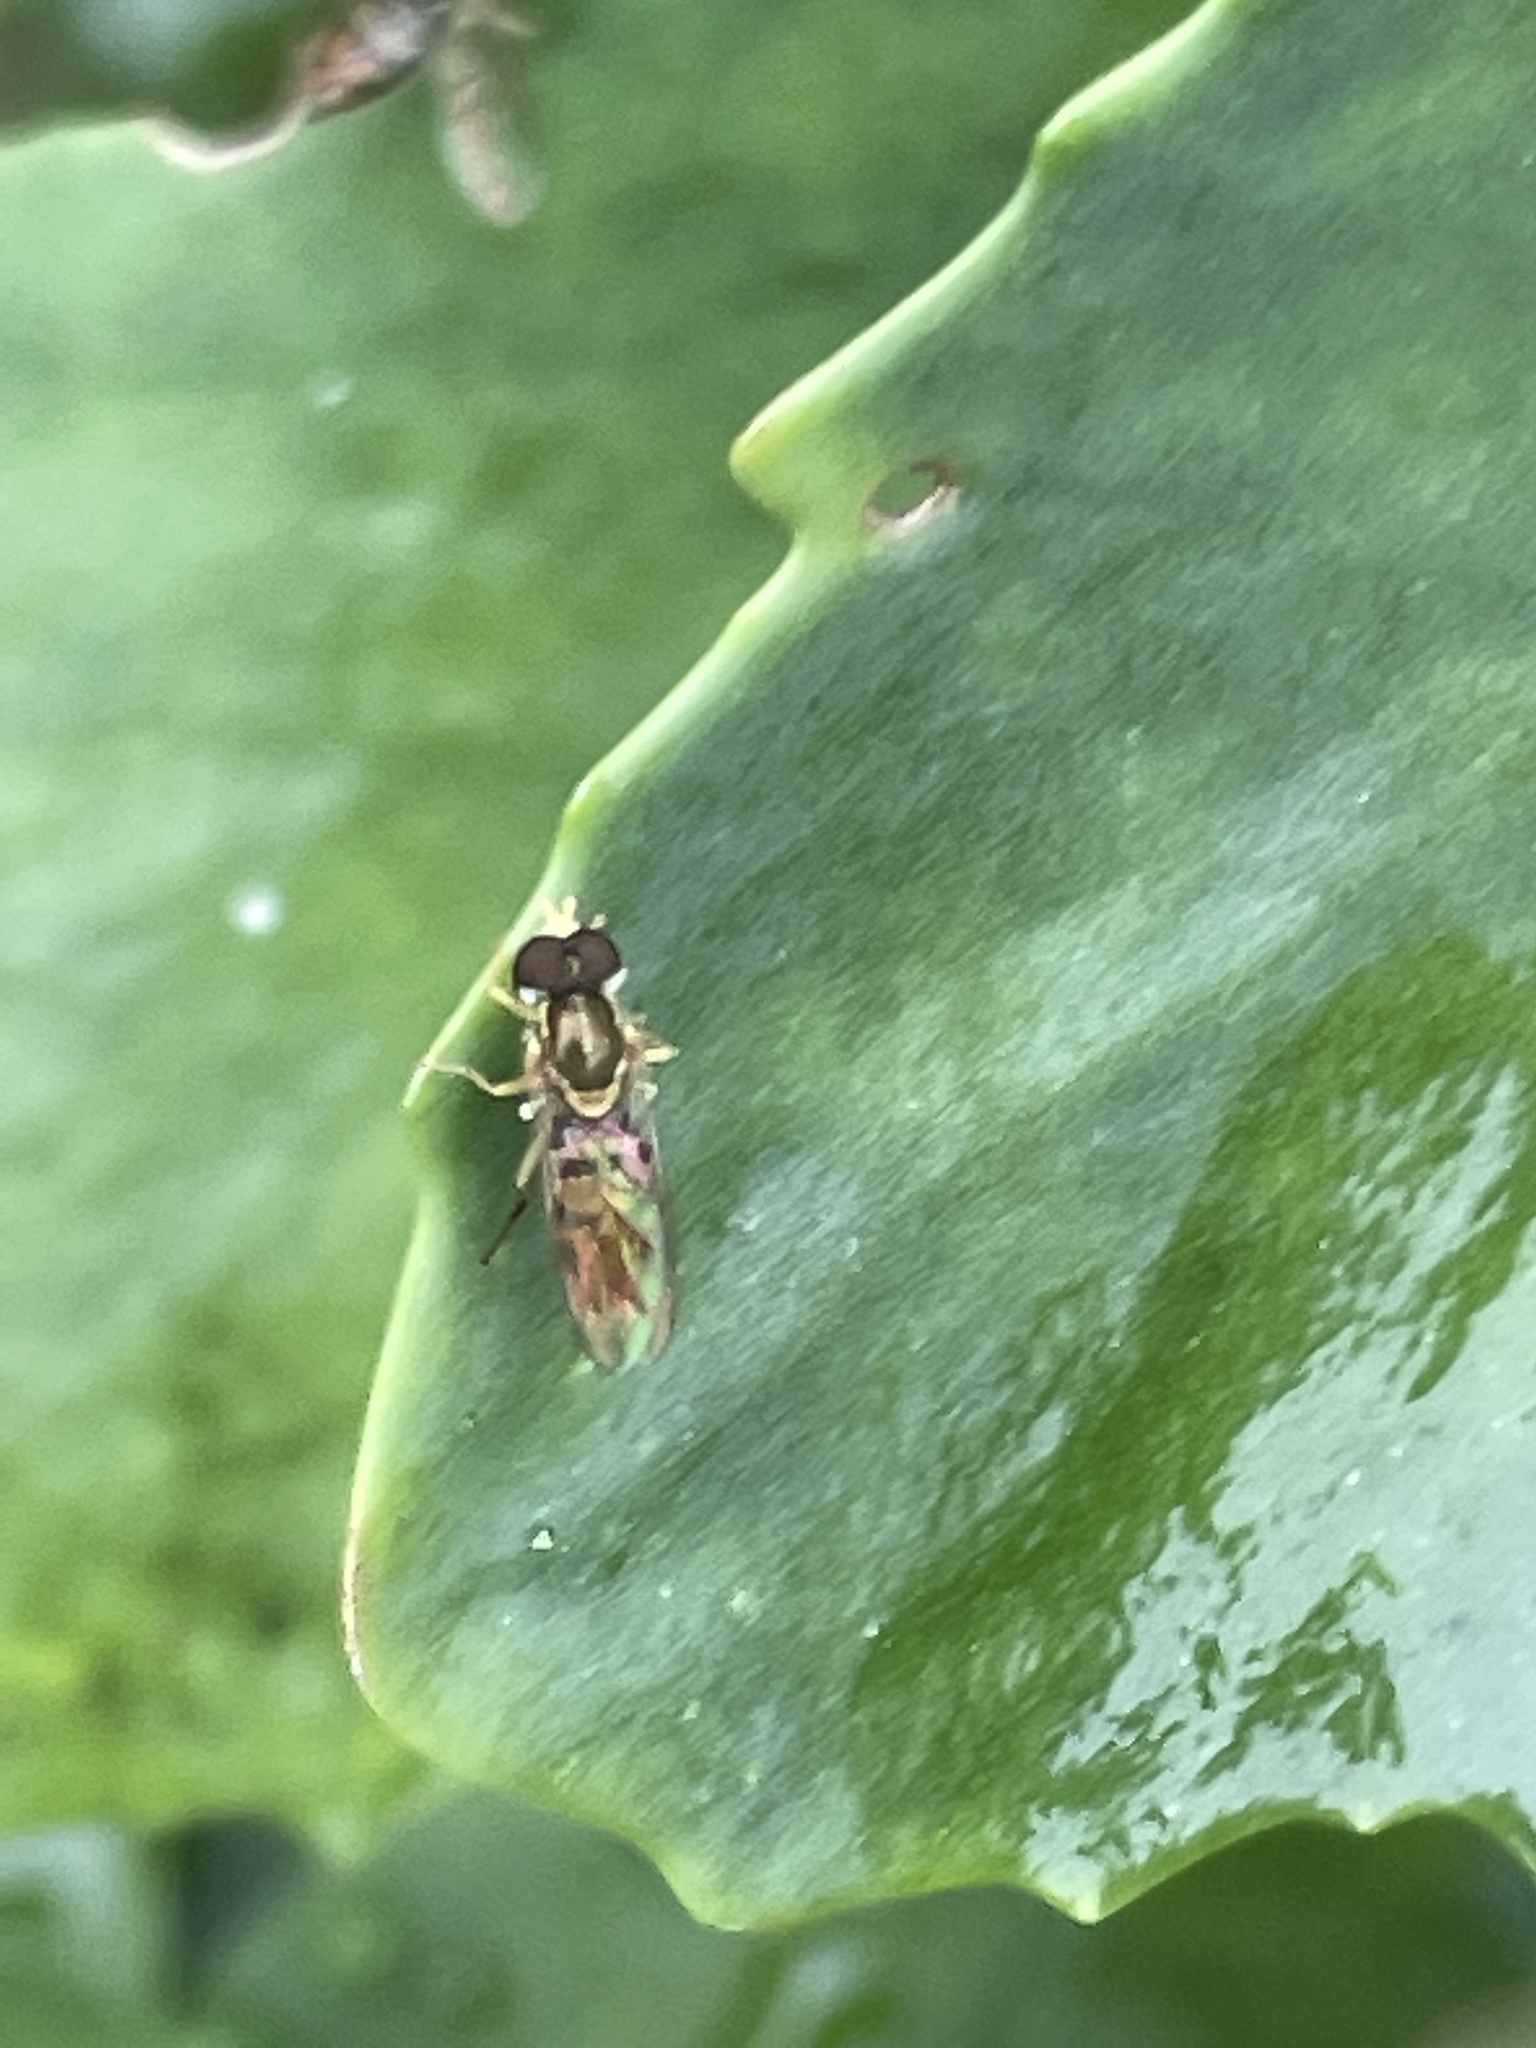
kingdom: Animalia
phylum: Arthropoda
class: Insecta
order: Diptera
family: Syrphidae
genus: Toxomerus
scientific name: Toxomerus marginatus
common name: Syrphid fly
